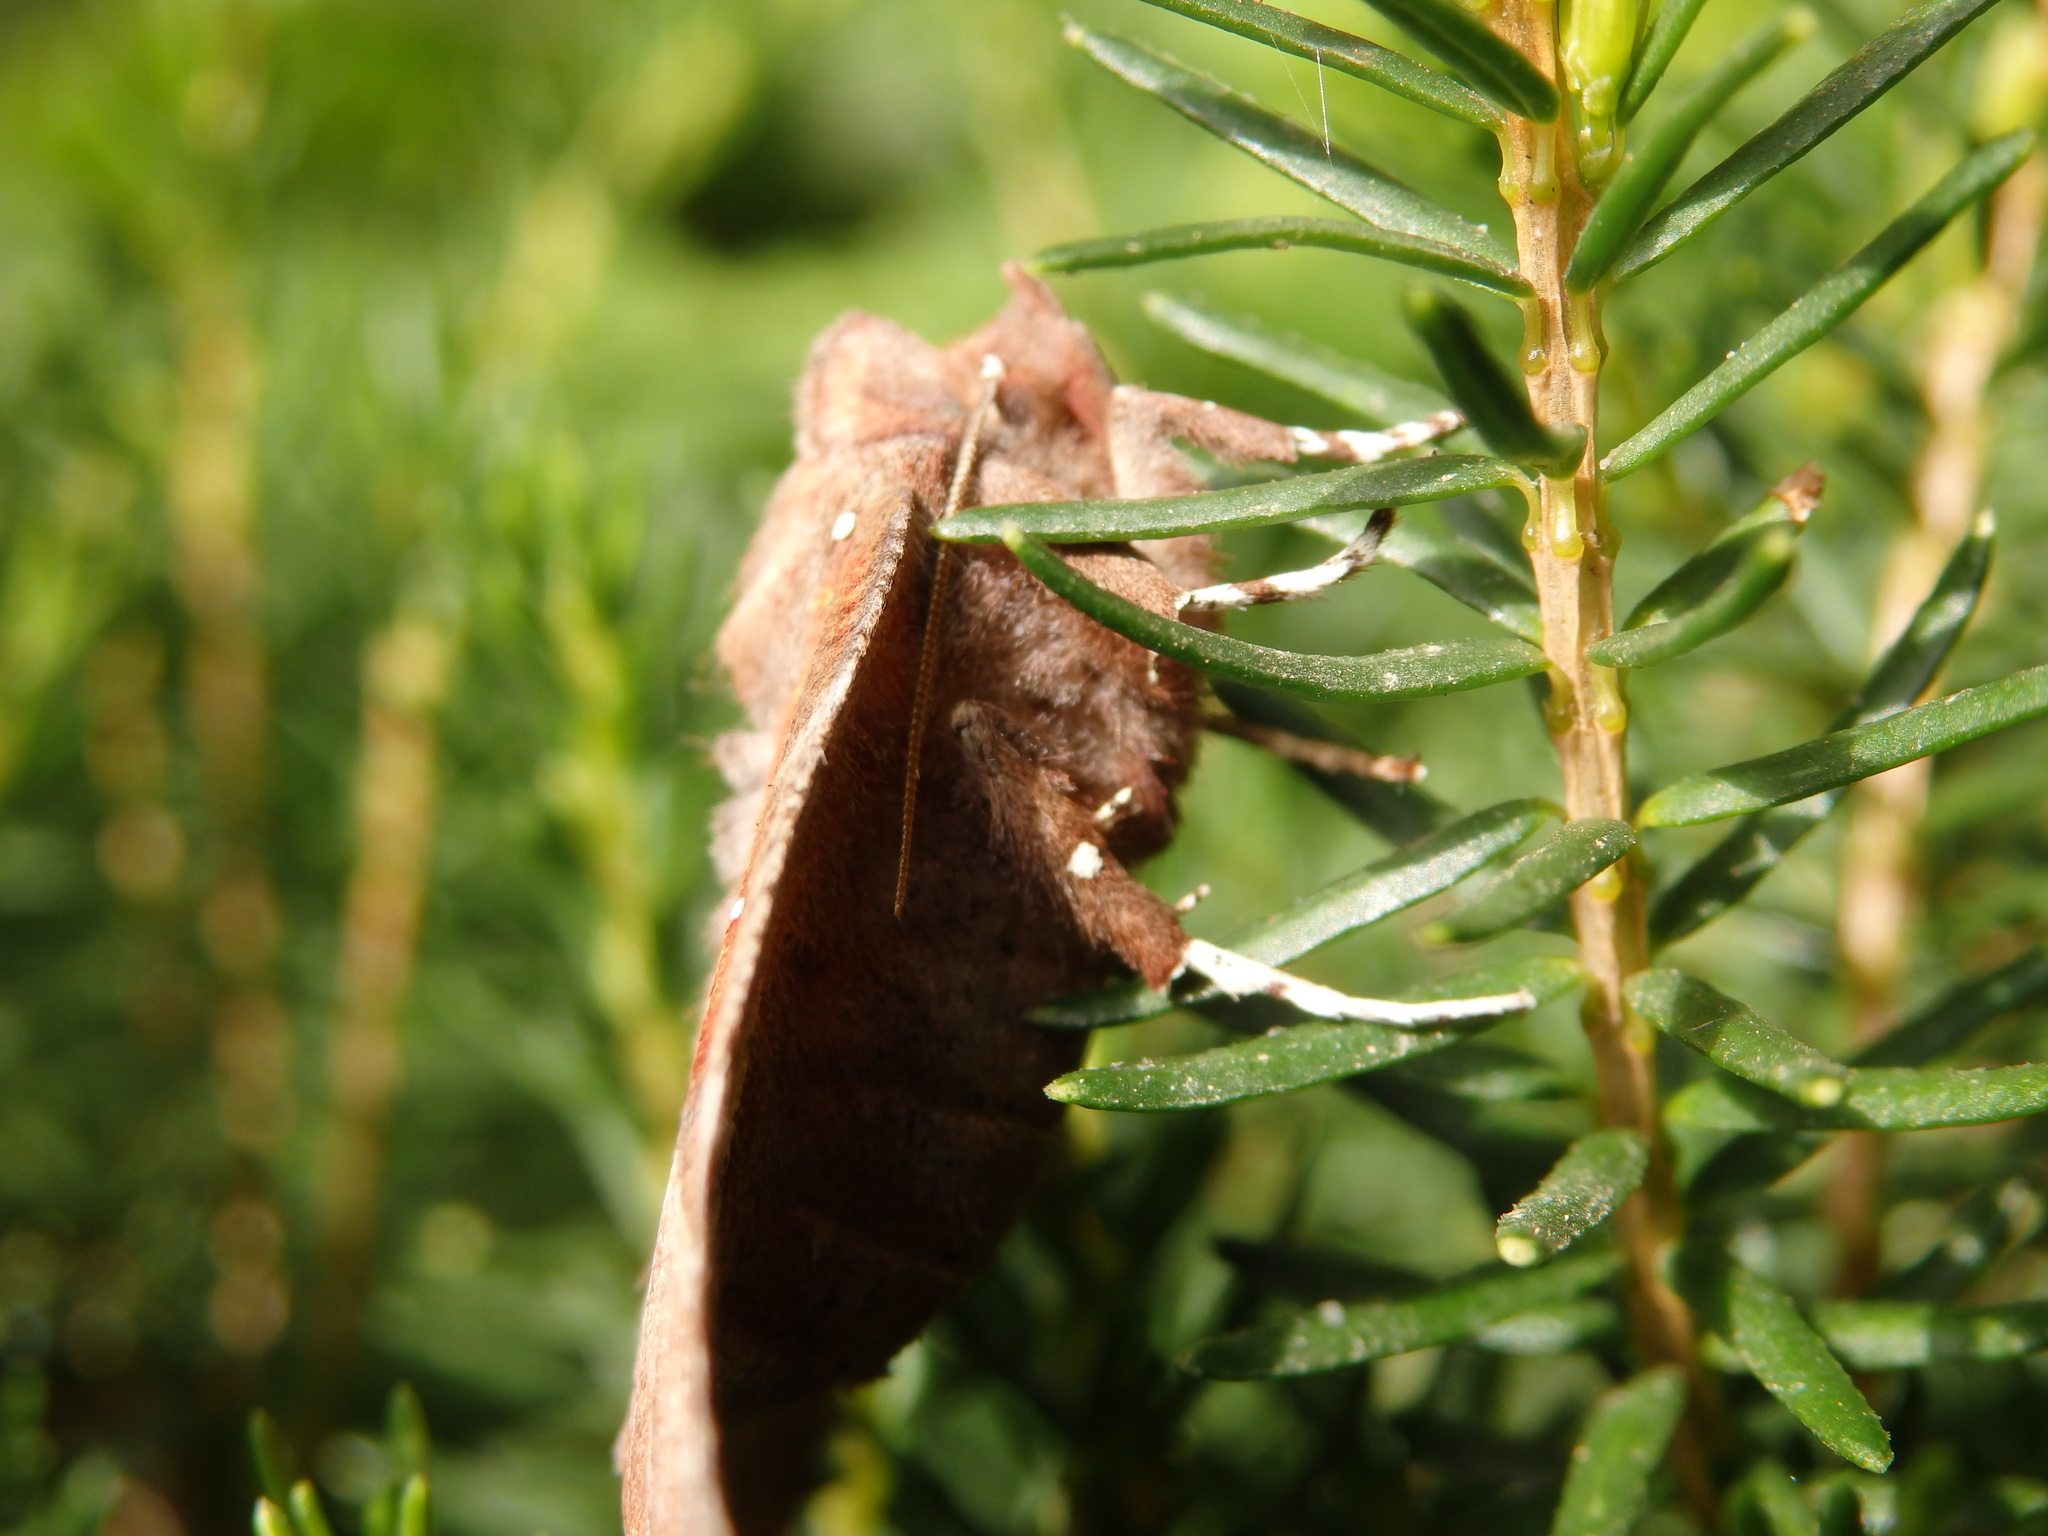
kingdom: Animalia
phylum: Arthropoda
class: Insecta
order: Lepidoptera
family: Erebidae
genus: Scoliopteryx
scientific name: Scoliopteryx libatrix
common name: Herald
